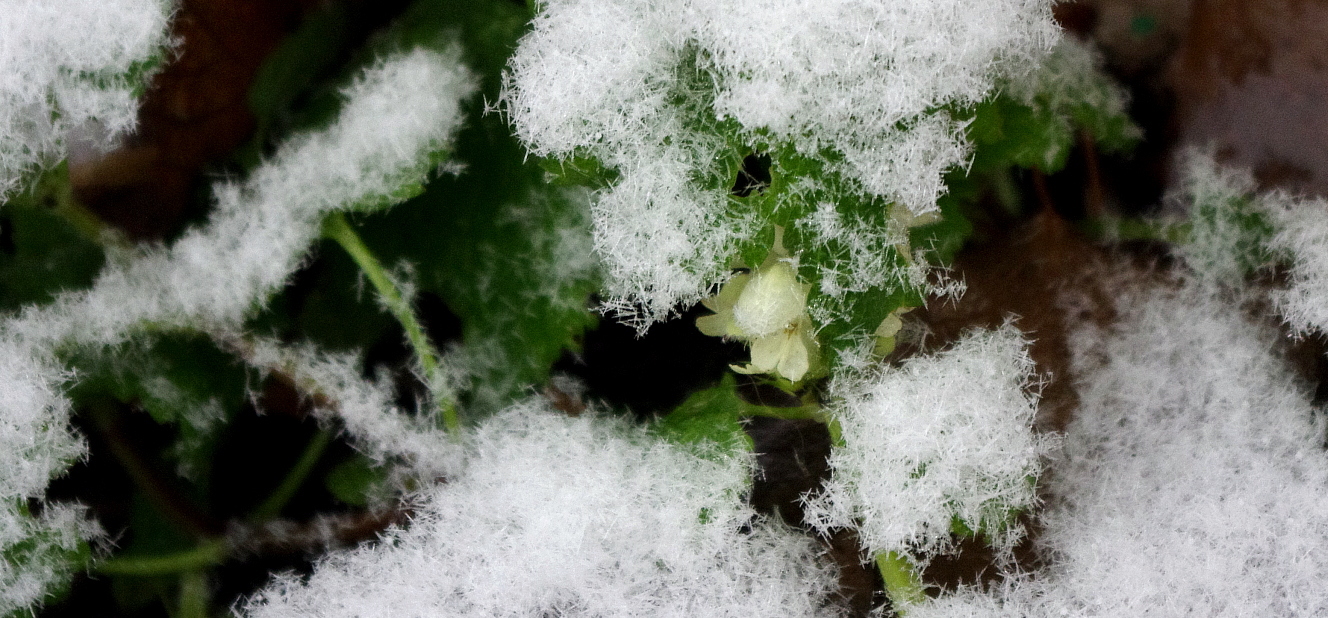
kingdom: Plantae
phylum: Tracheophyta
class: Magnoliopsida
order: Lamiales
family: Lamiaceae
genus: Lamium
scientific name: Lamium album
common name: White dead-nettle
